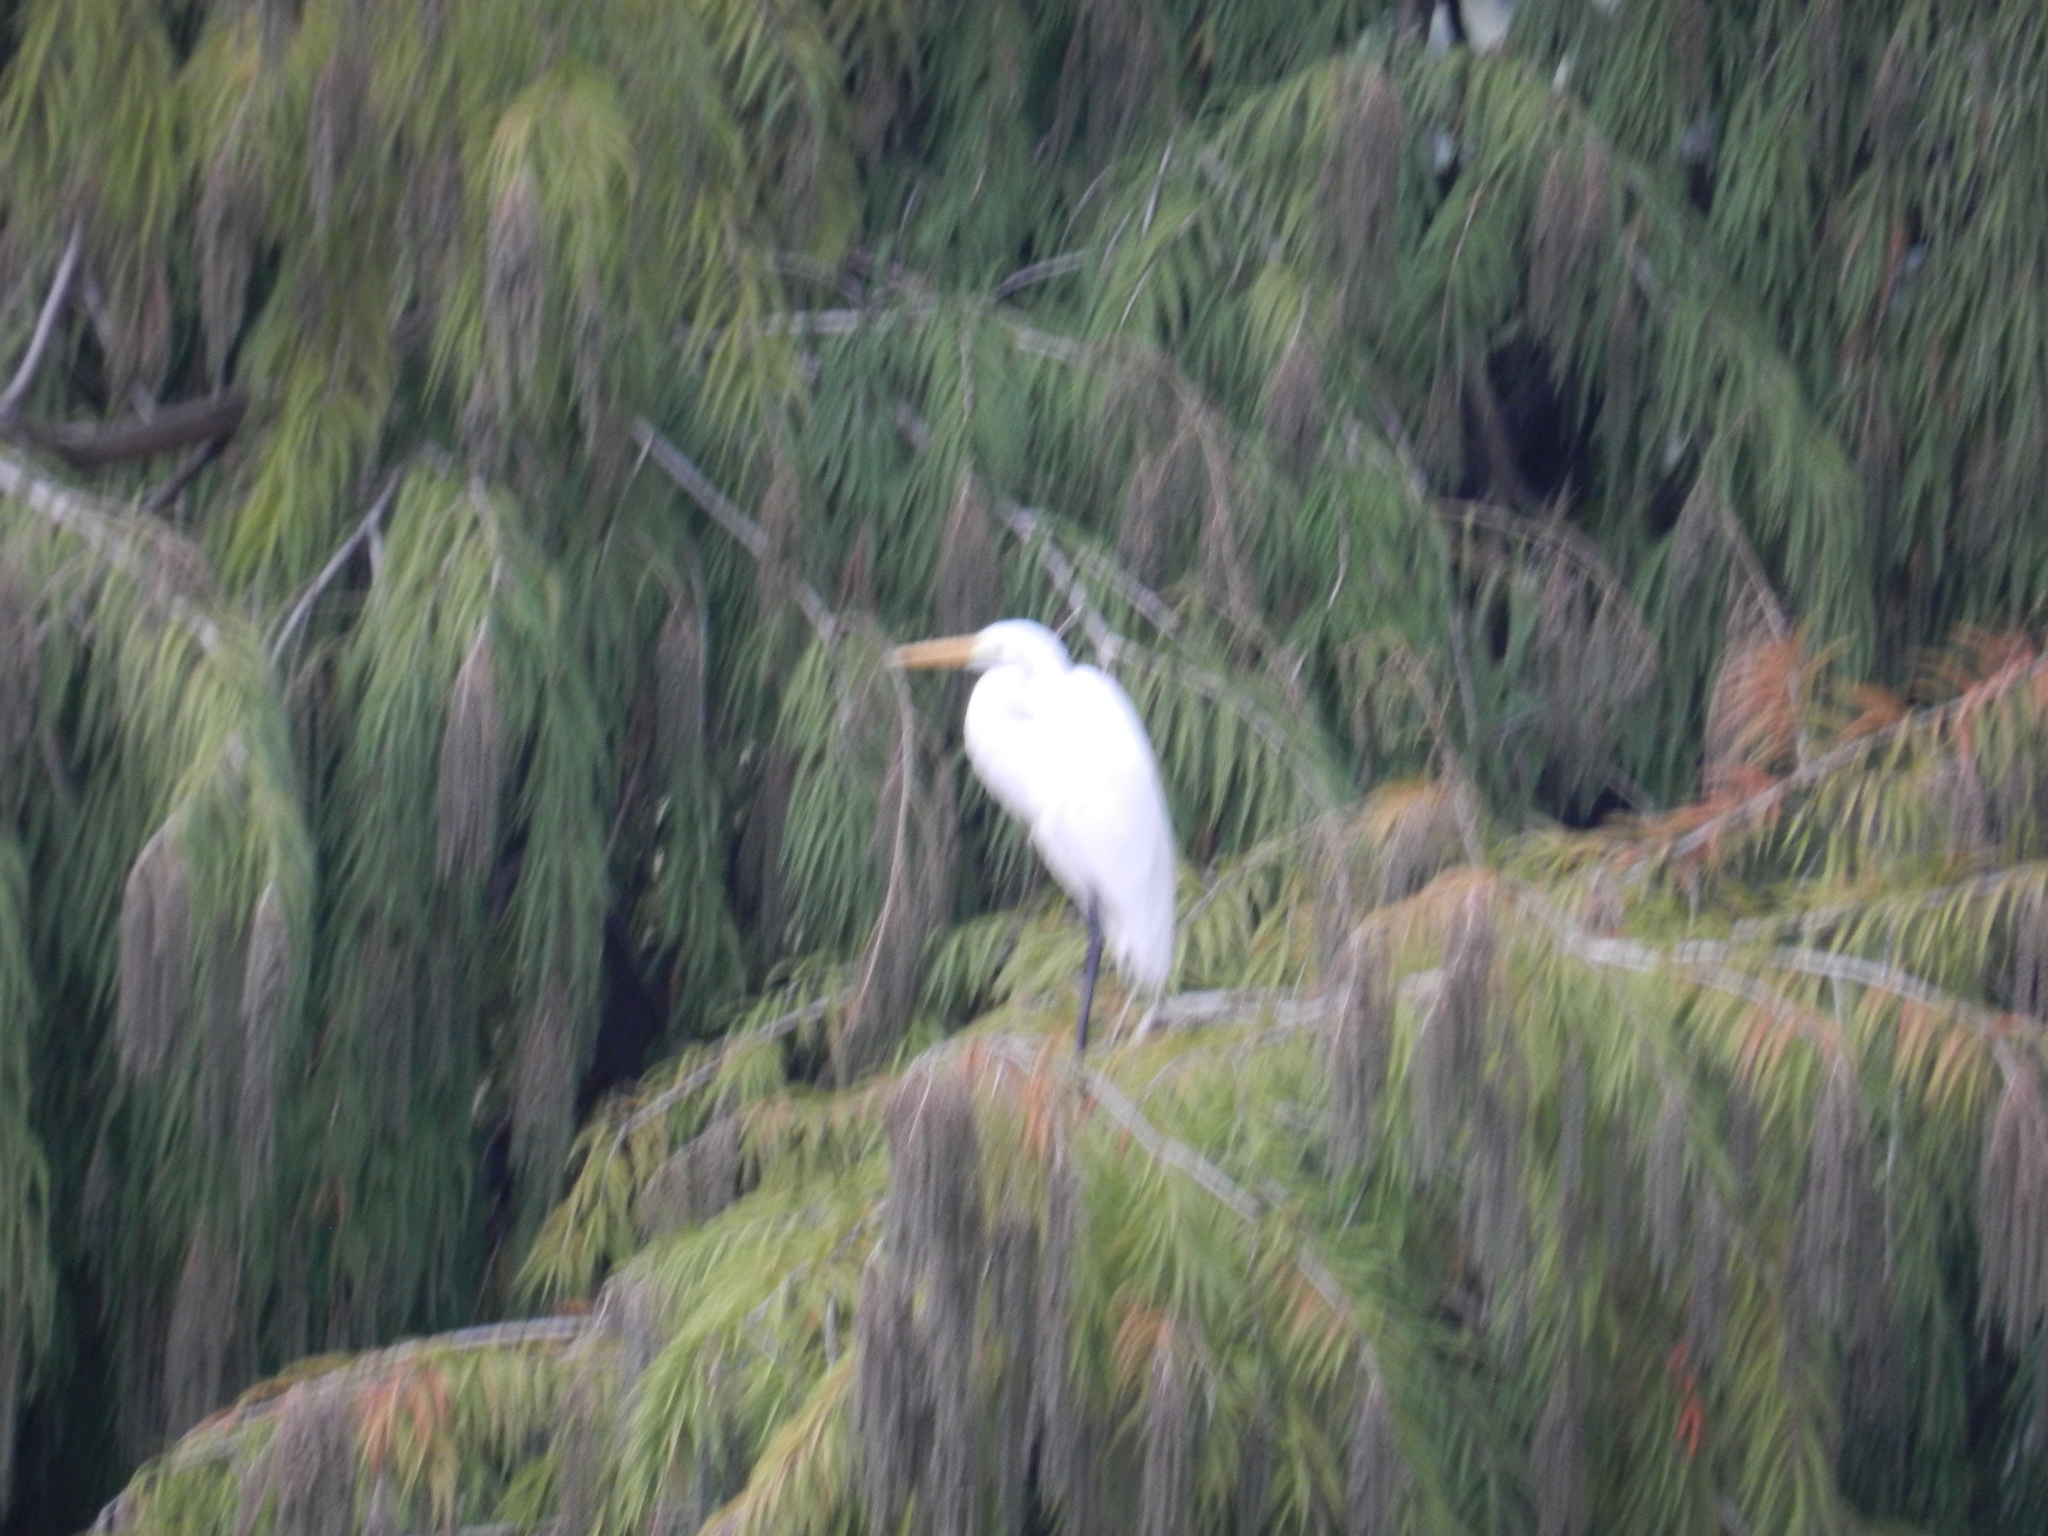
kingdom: Animalia
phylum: Chordata
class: Aves
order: Pelecaniformes
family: Ardeidae
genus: Ardea
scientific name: Ardea alba
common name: Great egret
